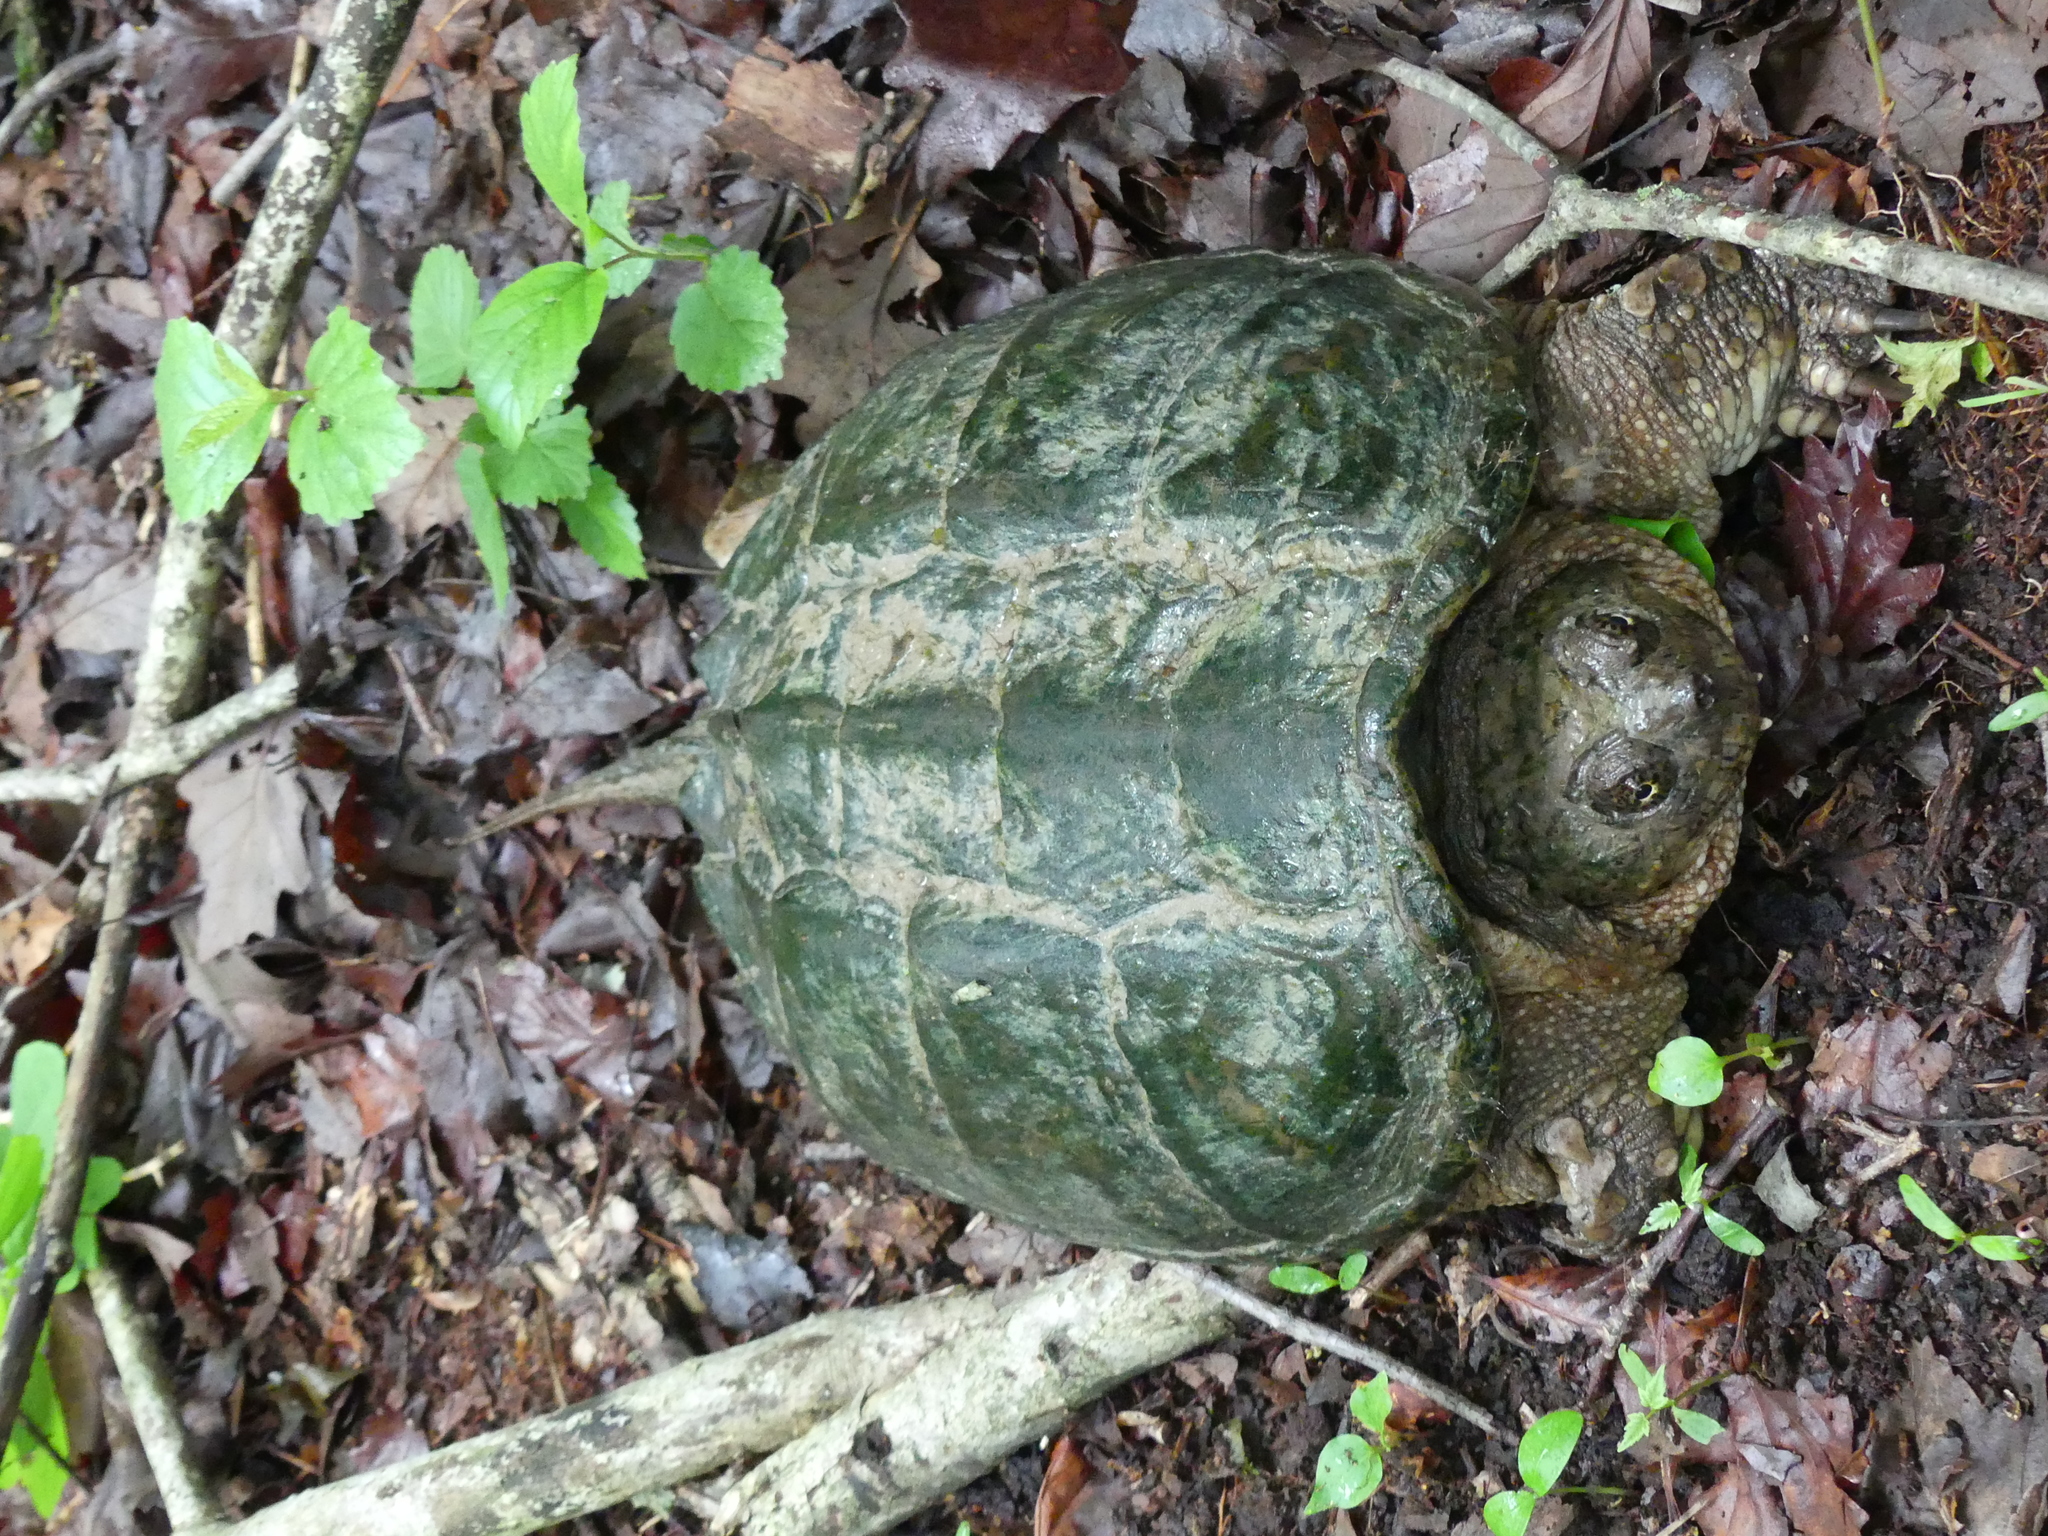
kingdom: Animalia
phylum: Chordata
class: Testudines
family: Chelydridae
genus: Chelydra
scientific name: Chelydra serpentina
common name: Common snapping turtle
